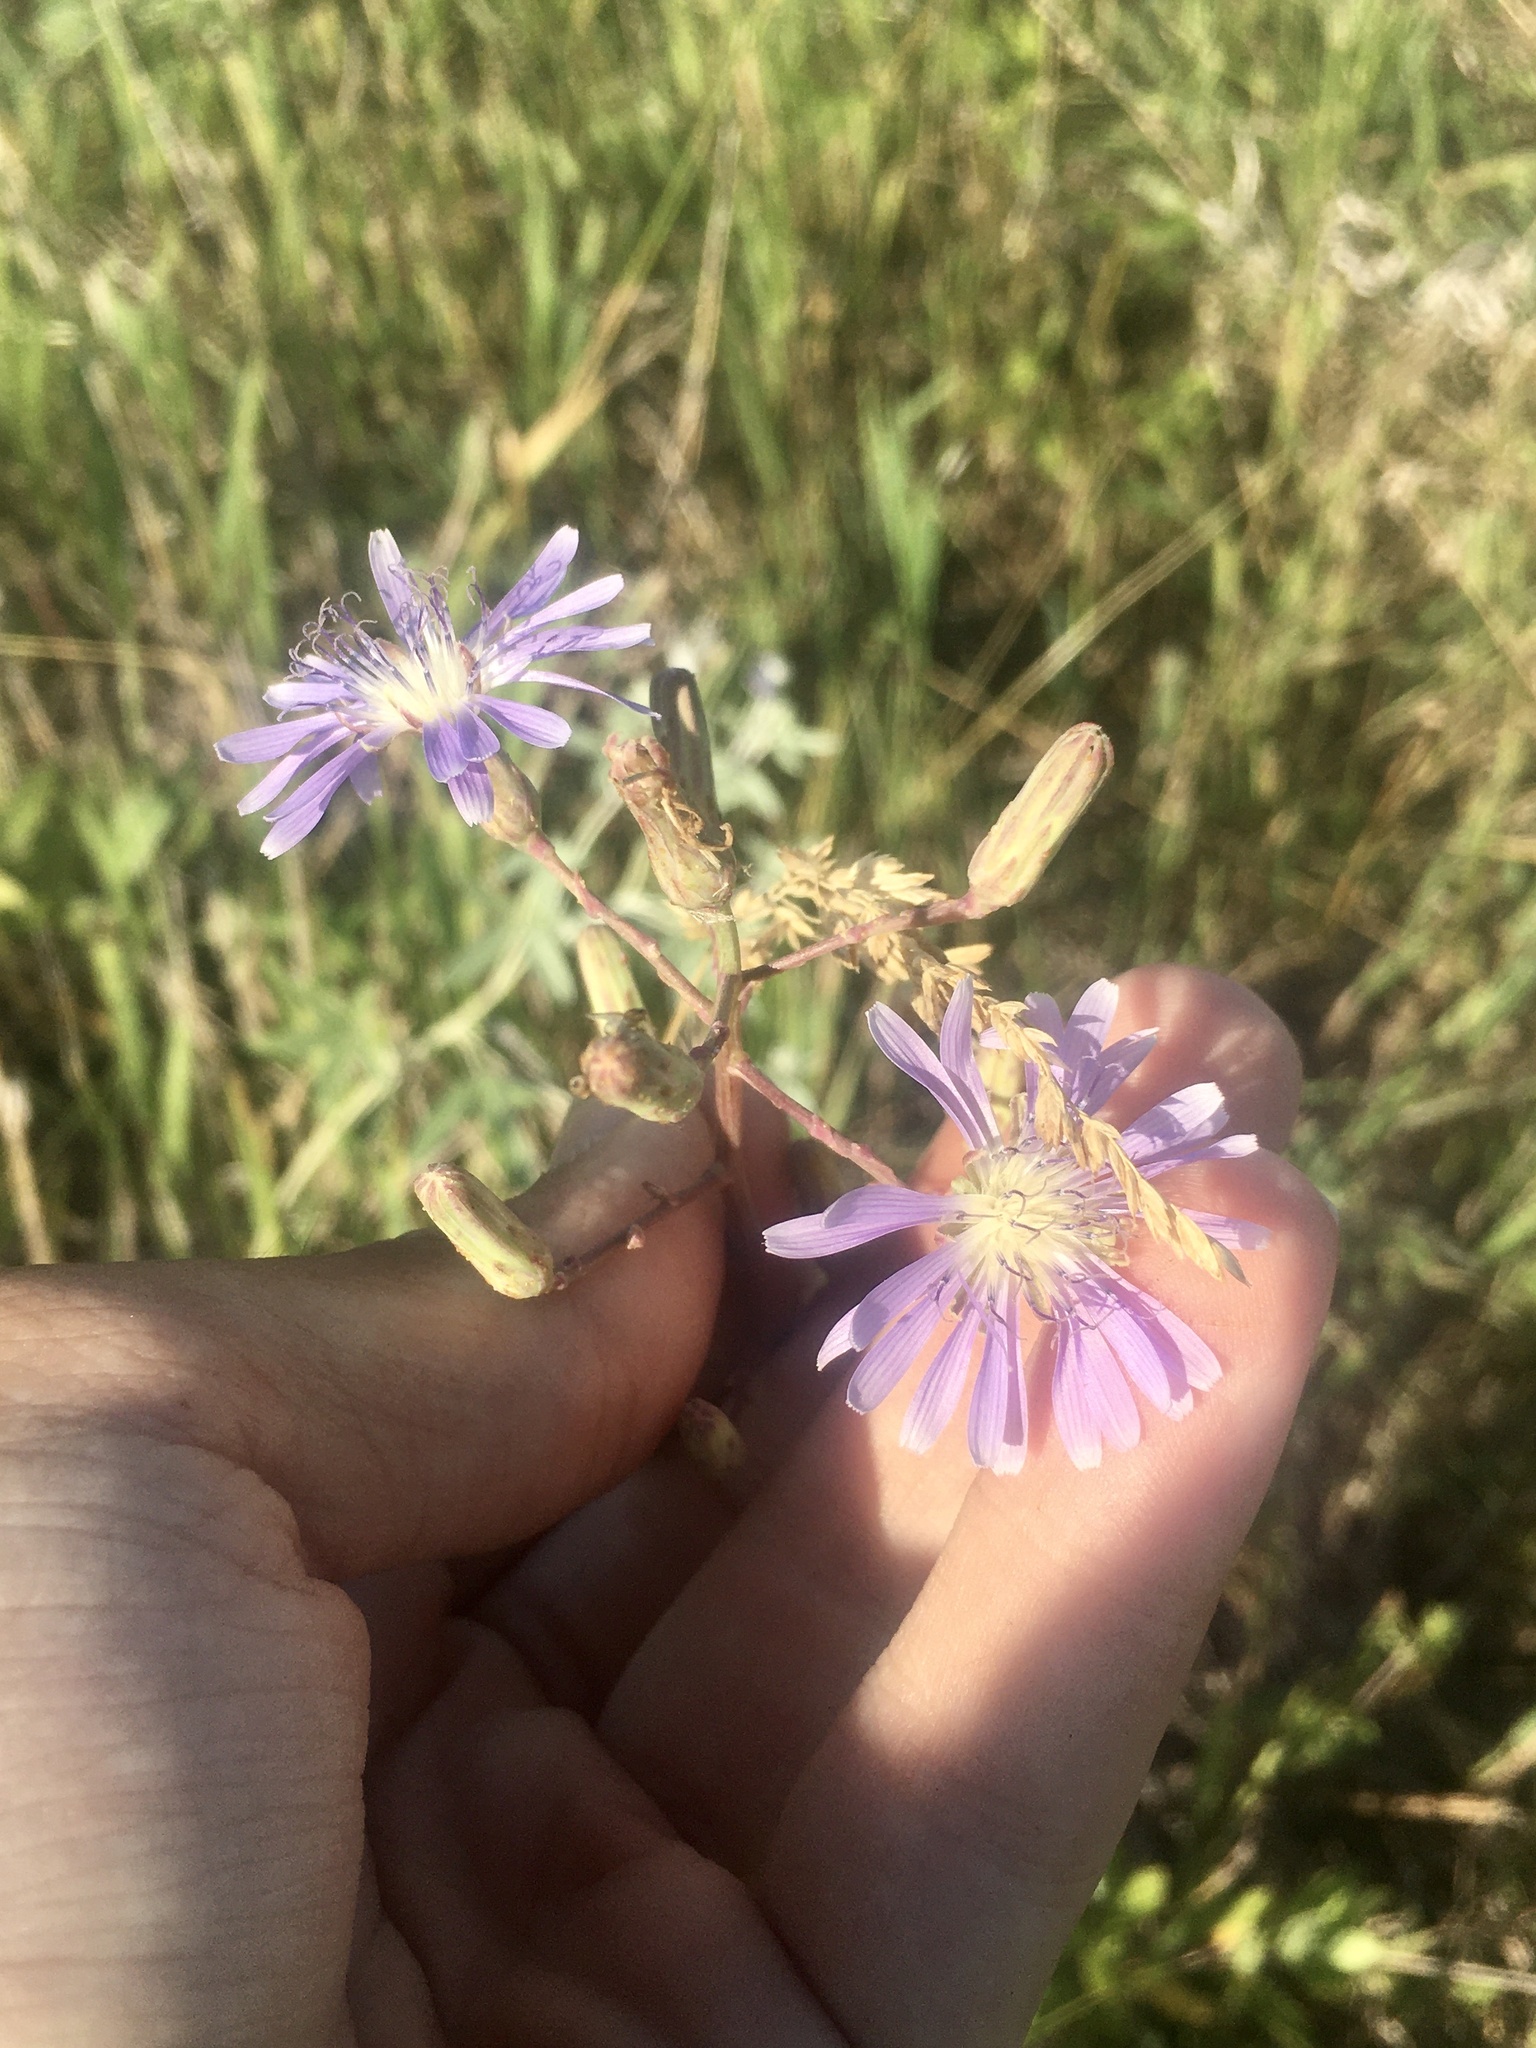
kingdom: Plantae
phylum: Tracheophyta
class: Magnoliopsida
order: Asterales
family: Asteraceae
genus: Lactuca
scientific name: Lactuca pulchella
